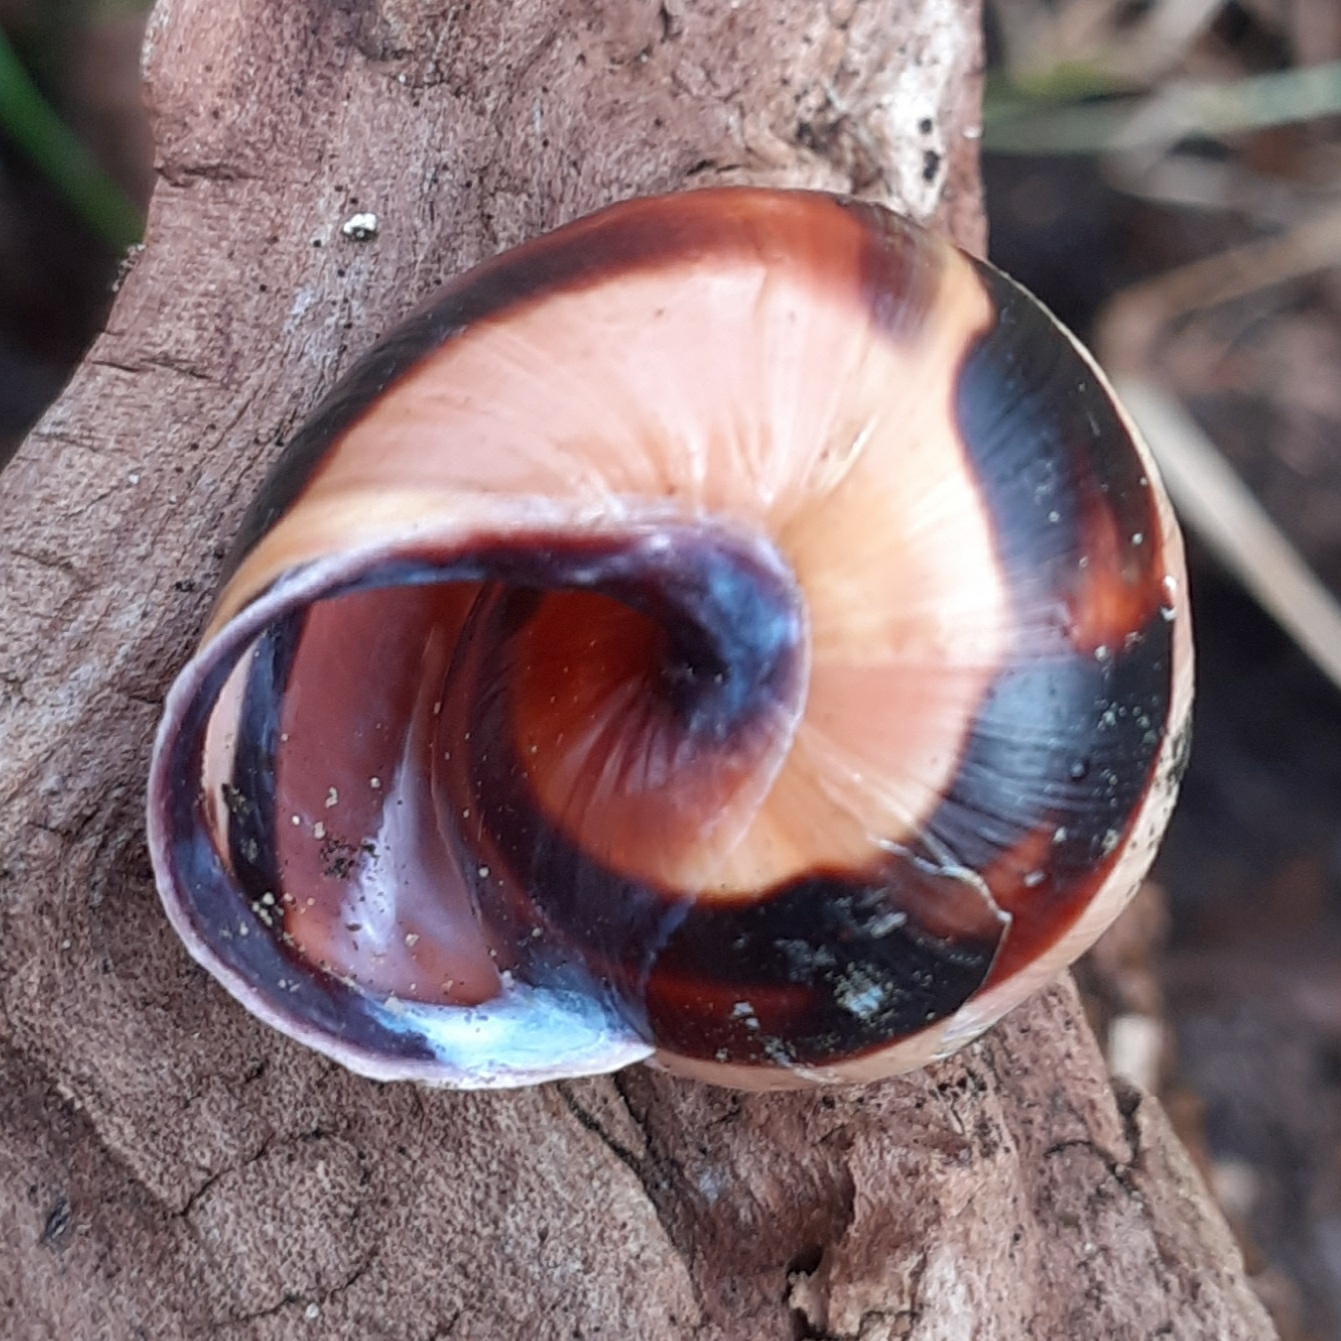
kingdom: Animalia
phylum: Mollusca
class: Gastropoda
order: Stylommatophora
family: Helicidae
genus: Cepaea
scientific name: Cepaea nemoralis
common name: Grovesnail
